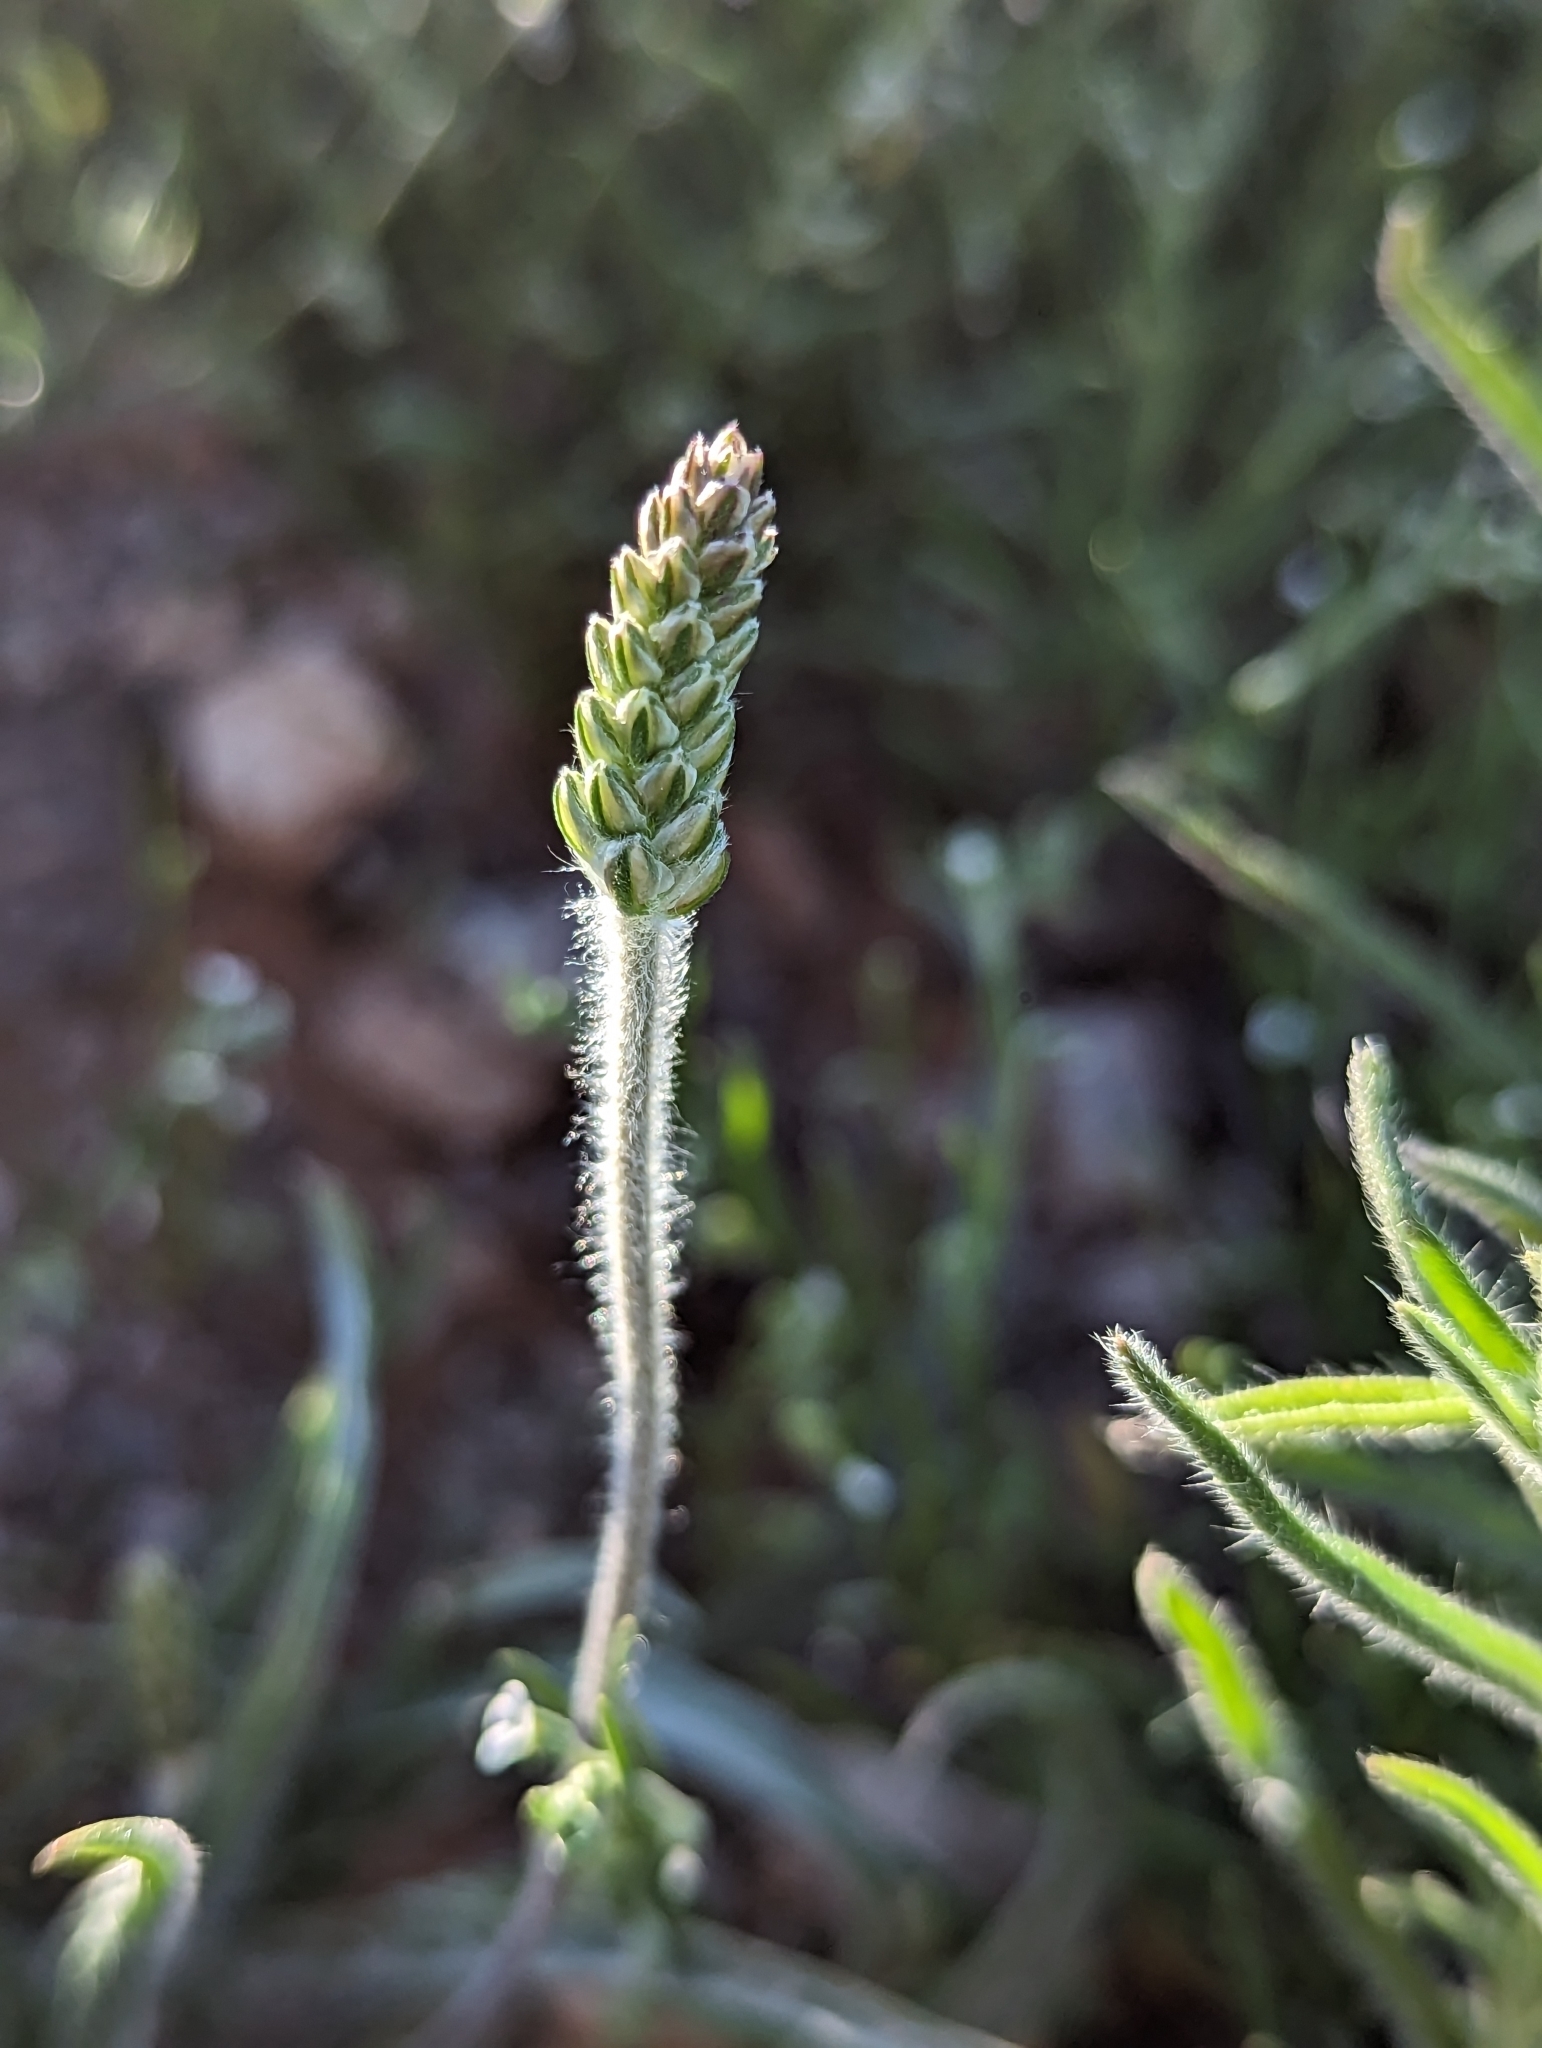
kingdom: Plantae
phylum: Tracheophyta
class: Magnoliopsida
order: Lamiales
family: Plantaginaceae
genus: Plantago
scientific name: Plantago ovata
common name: Blond plantain
